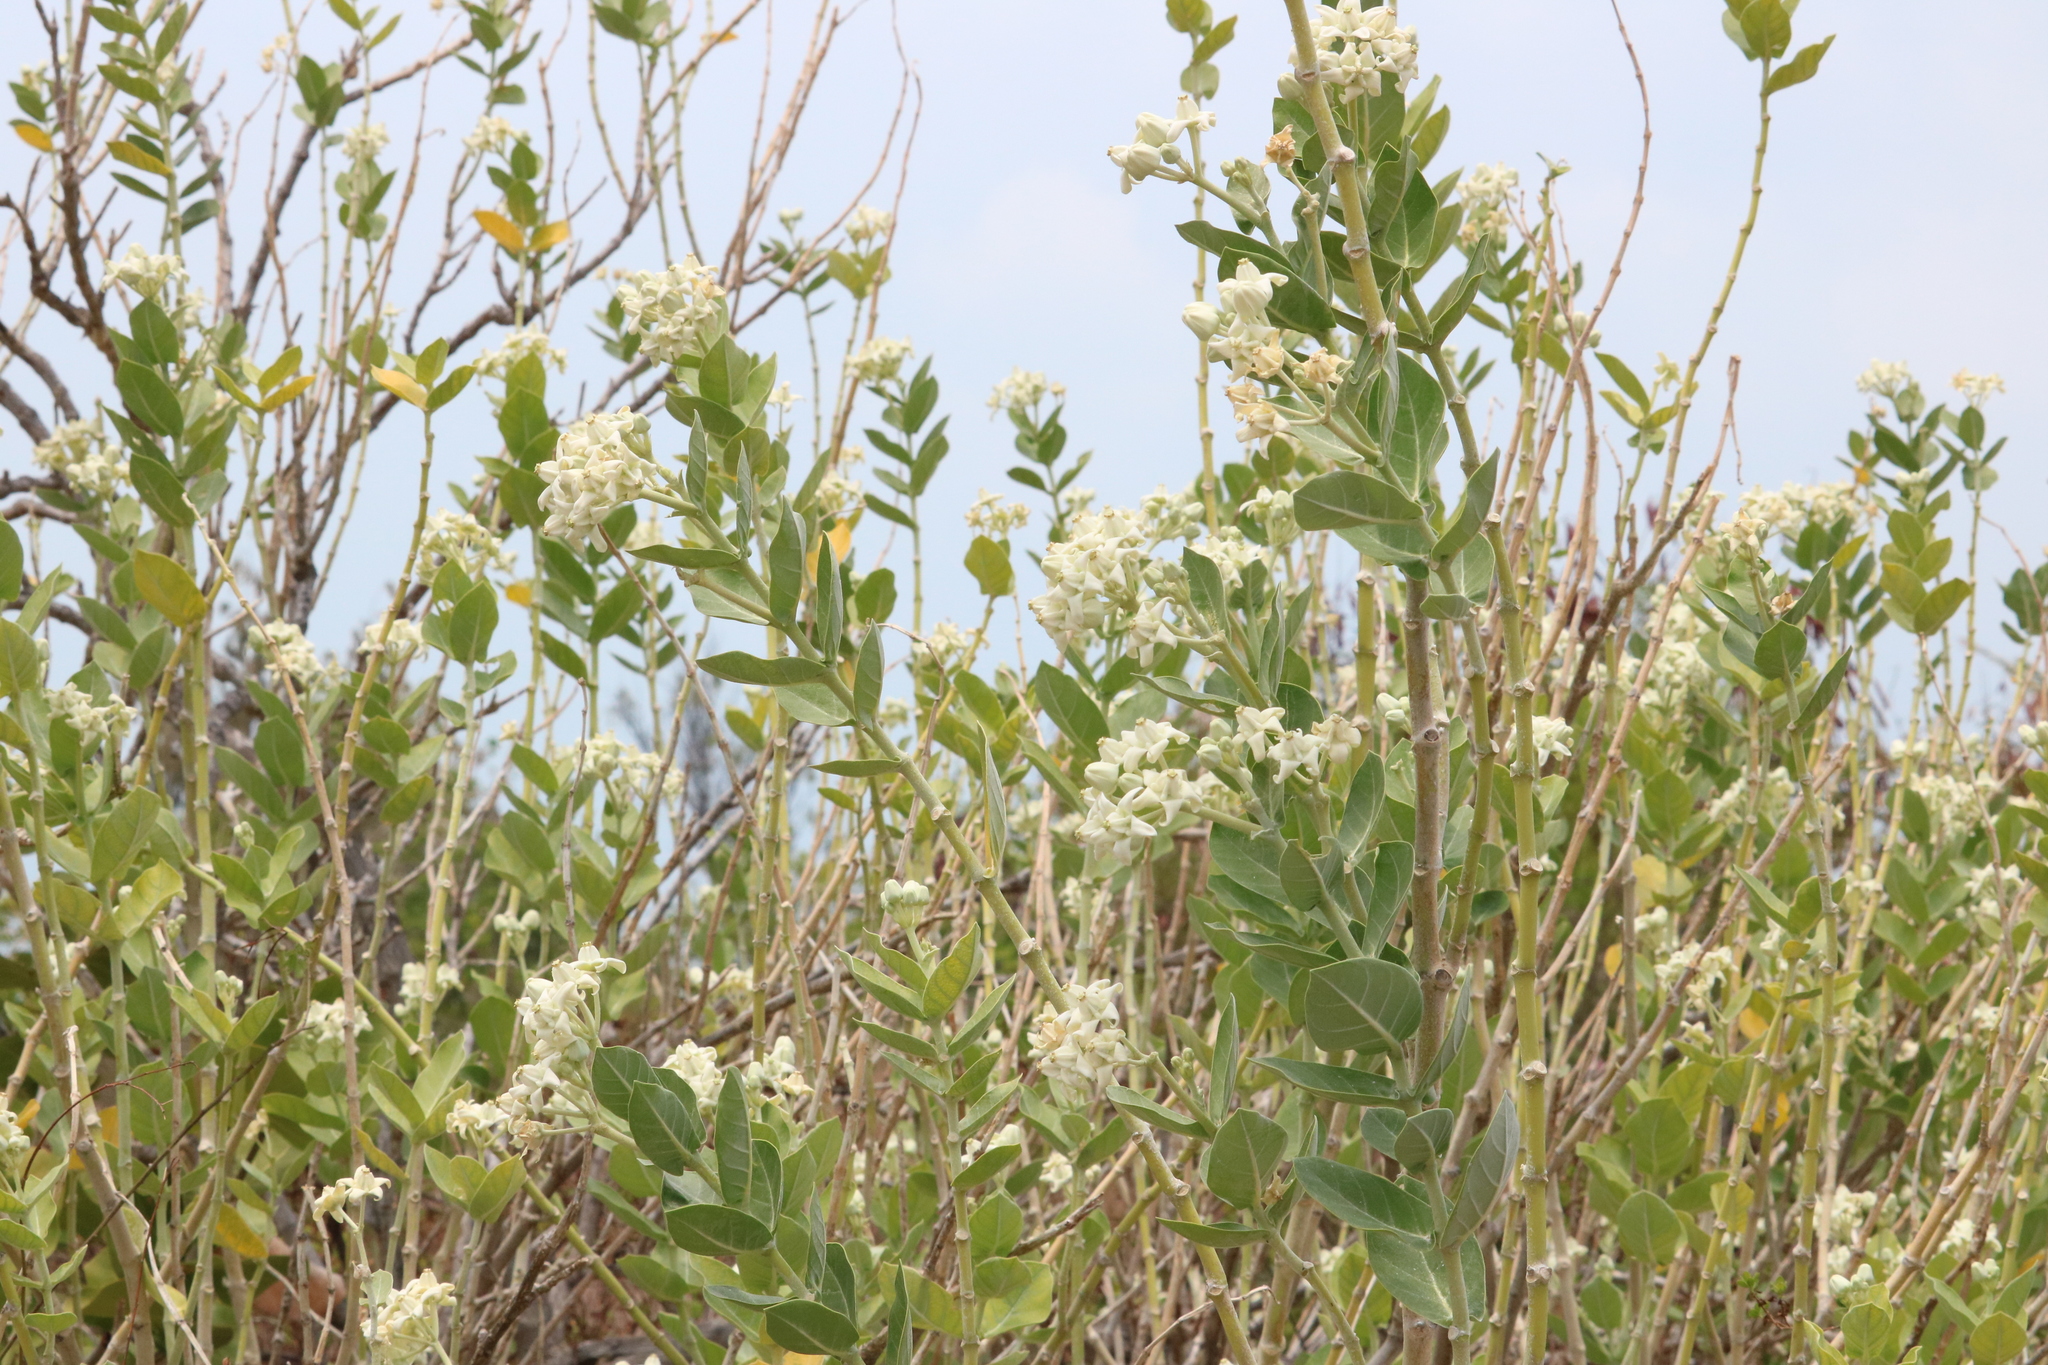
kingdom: Plantae
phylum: Tracheophyta
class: Magnoliopsida
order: Gentianales
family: Apocynaceae
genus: Calotropis
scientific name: Calotropis gigantea
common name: Crown flower
